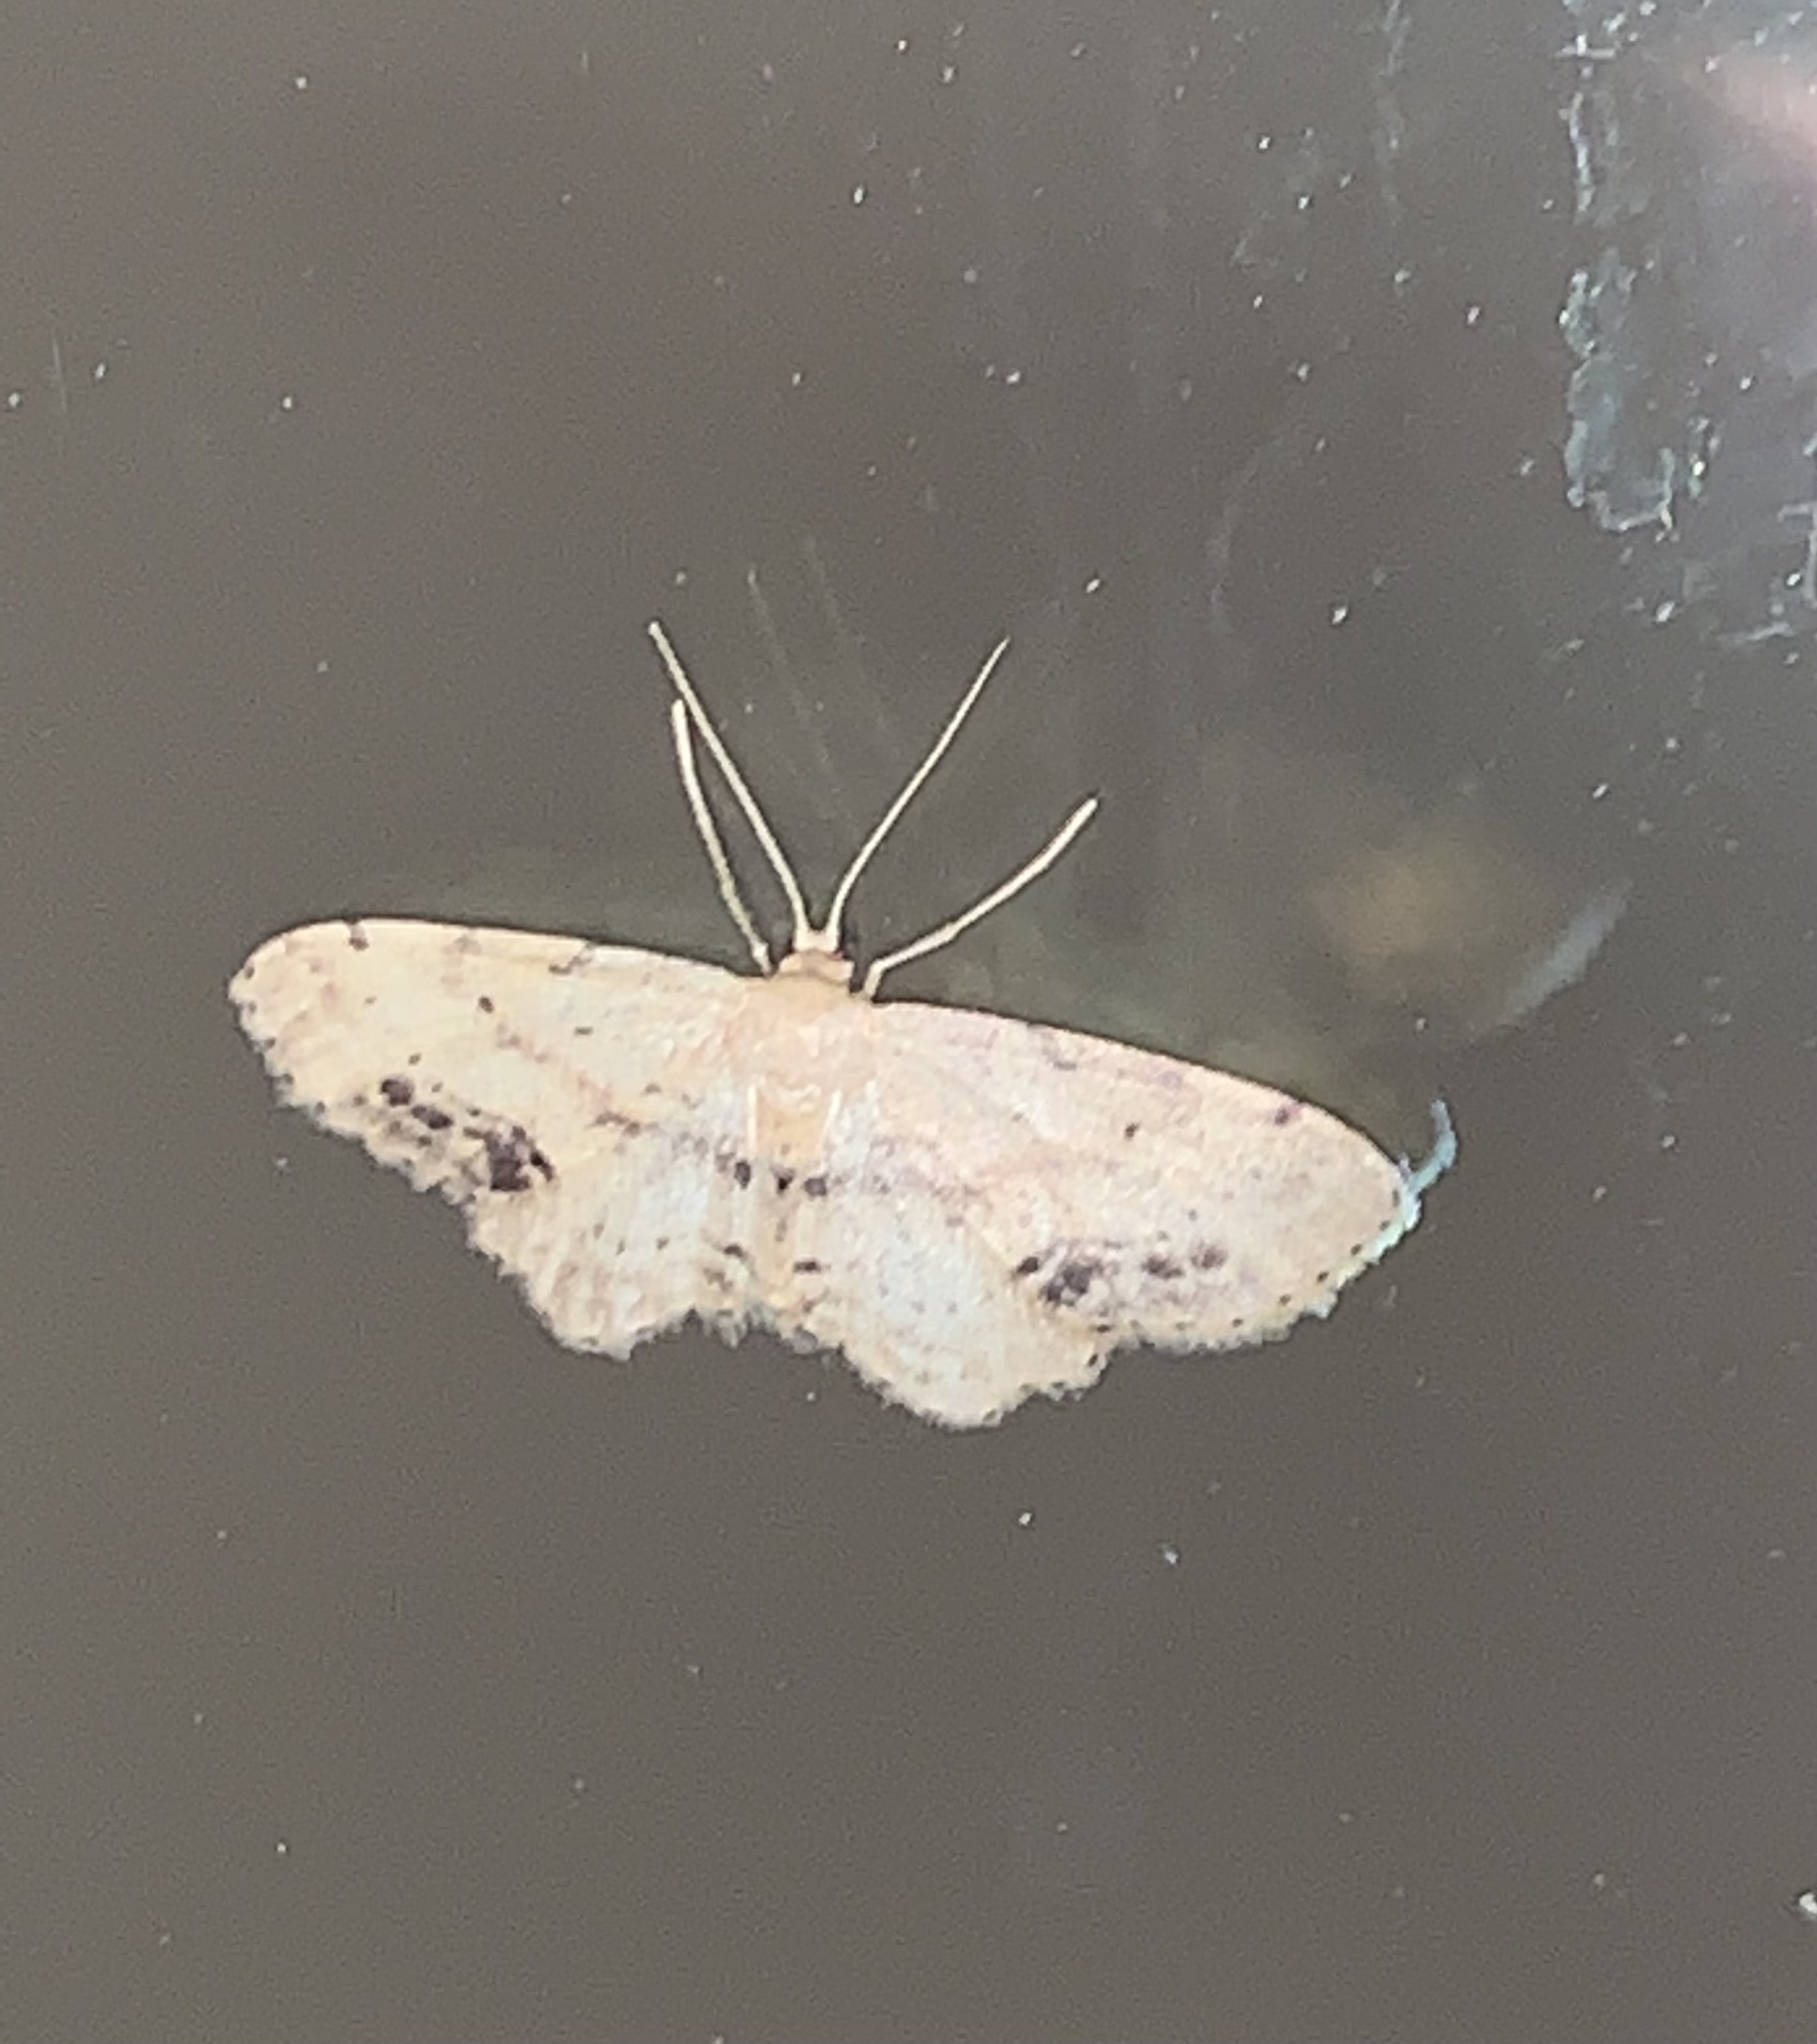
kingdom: Animalia
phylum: Arthropoda
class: Insecta
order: Lepidoptera
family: Geometridae
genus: Idaea
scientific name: Idaea dimidiata
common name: Single-dotted wave
